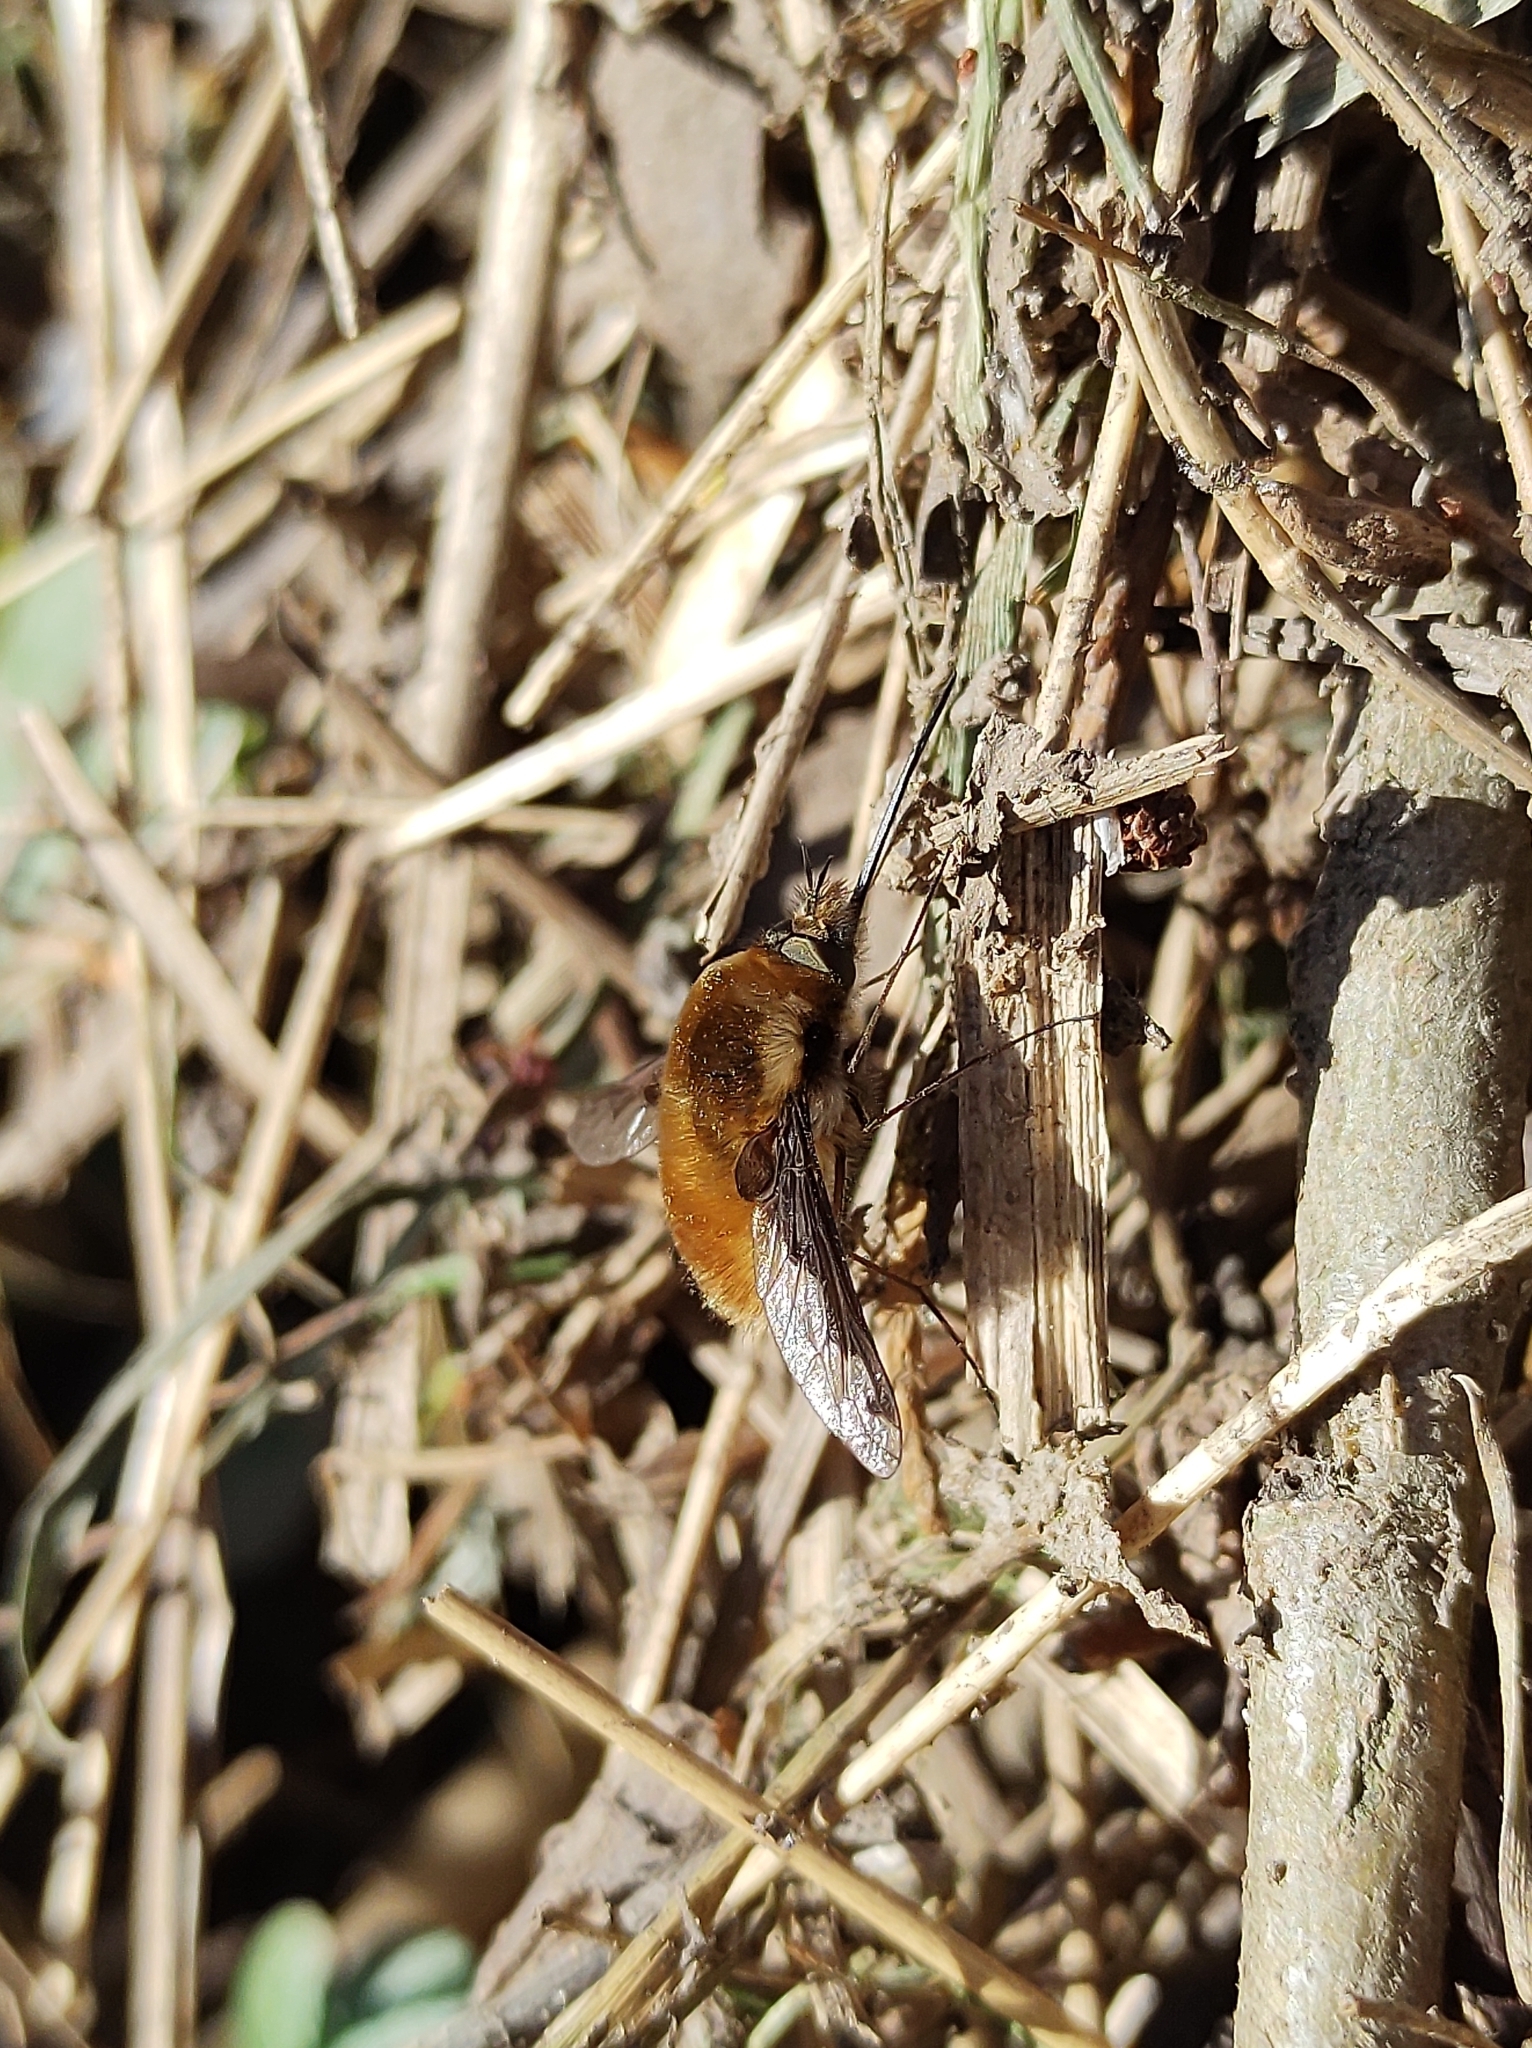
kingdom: Animalia
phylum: Arthropoda
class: Insecta
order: Diptera
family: Bombyliidae
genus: Bombylius
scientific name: Bombylius major
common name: Bee fly
